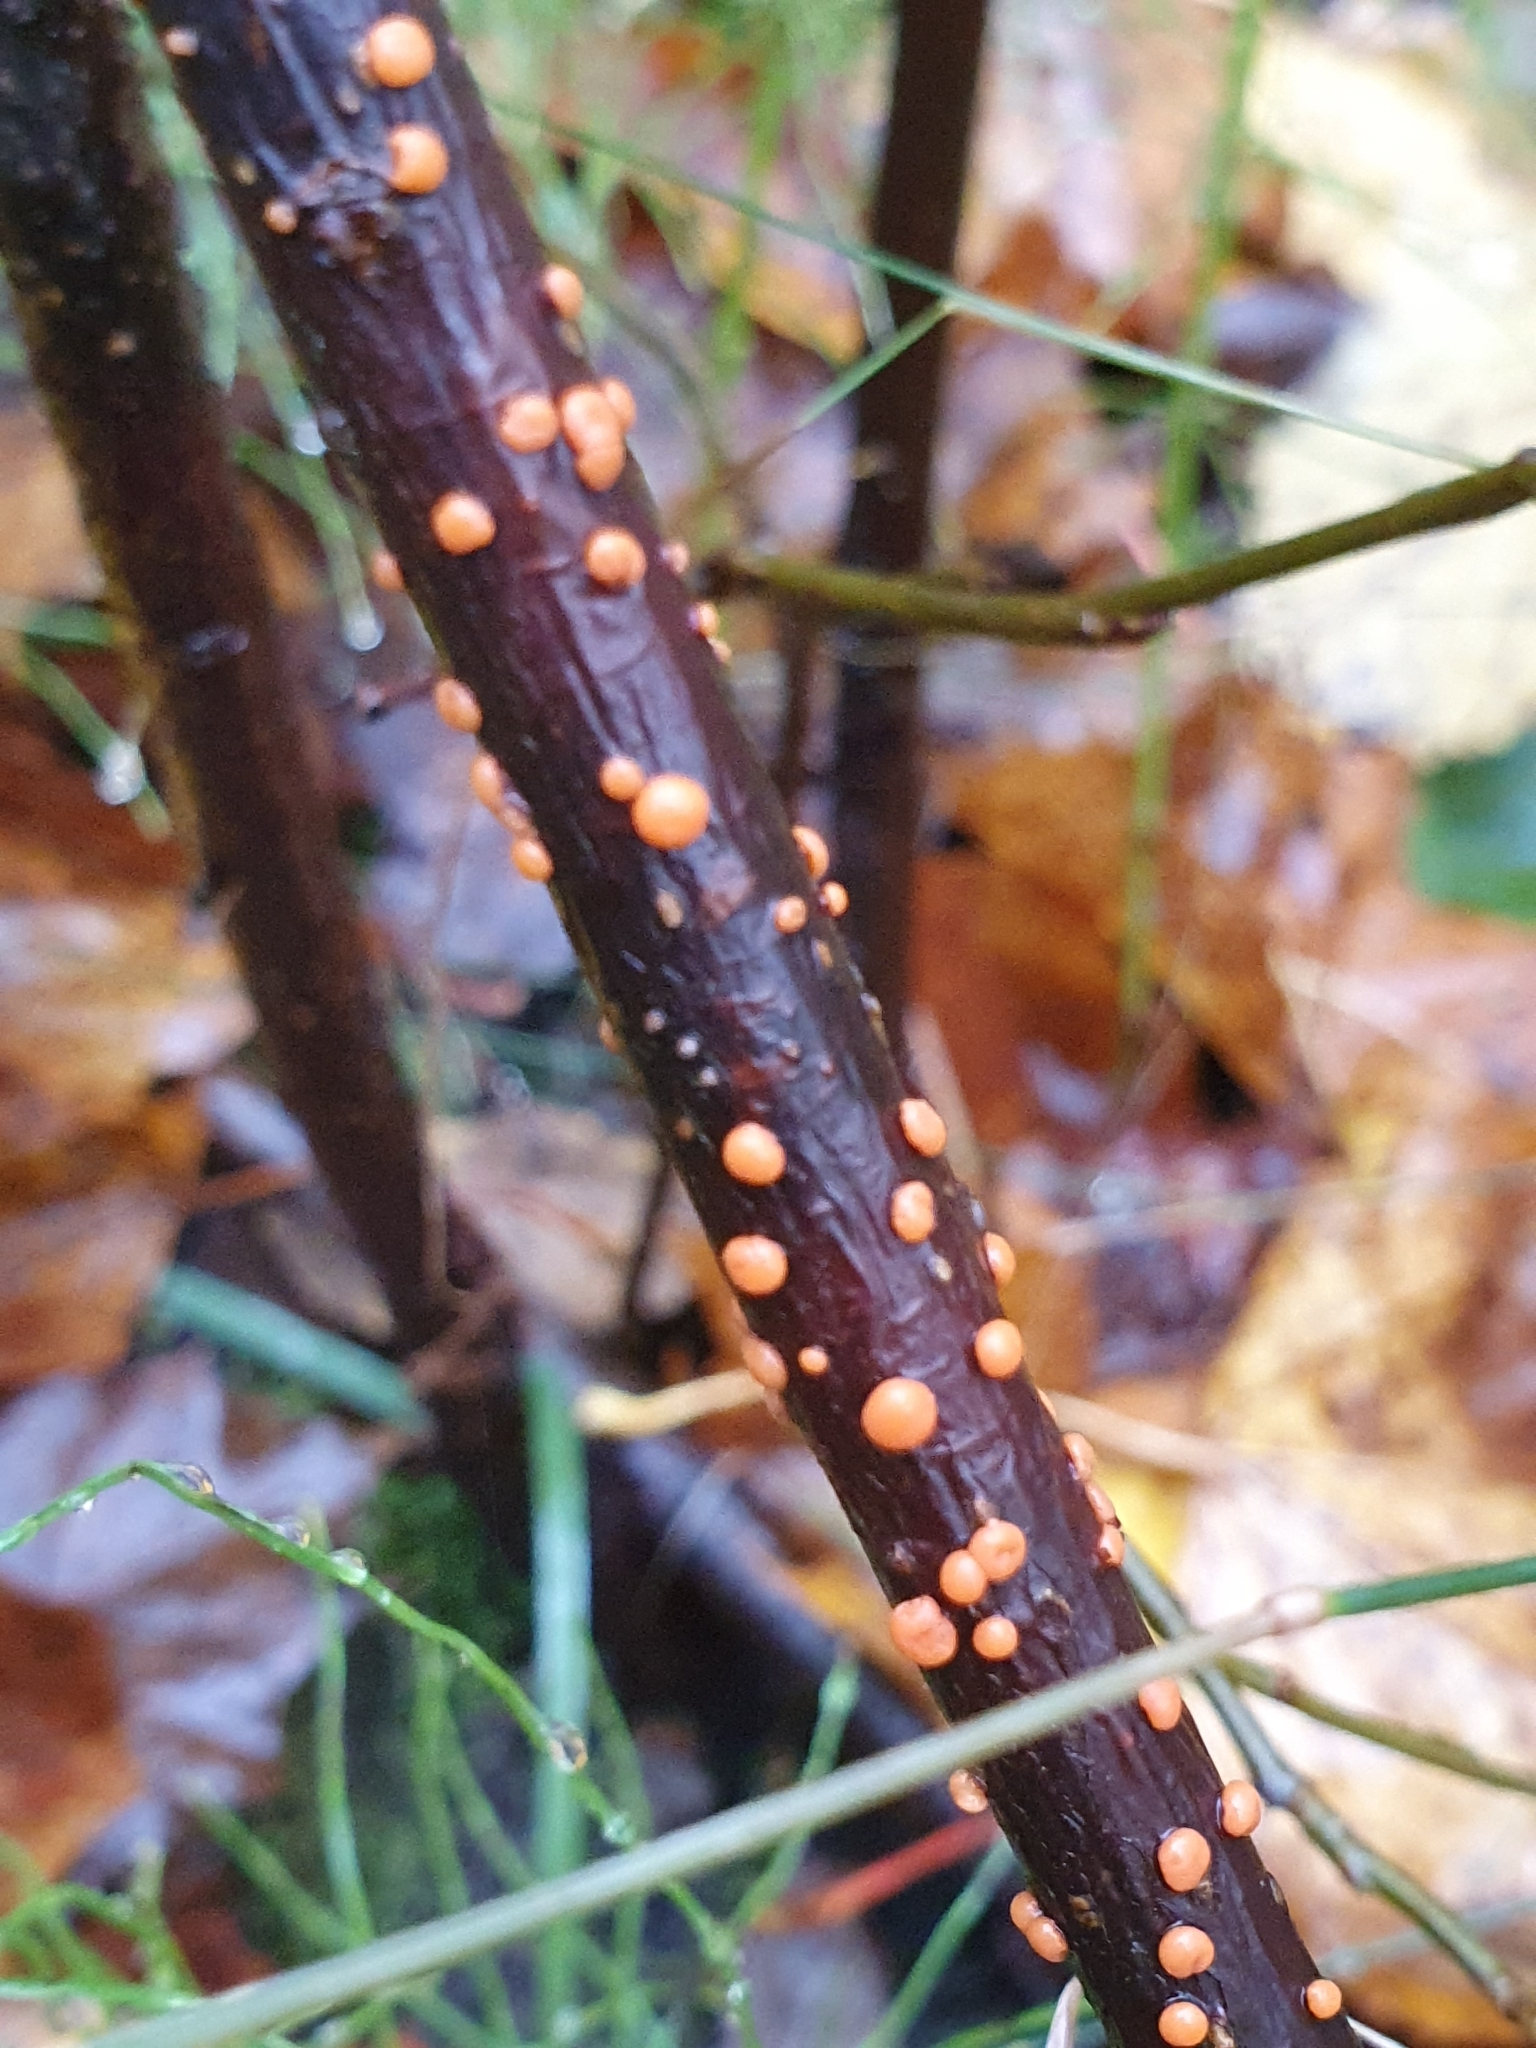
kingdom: Fungi
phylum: Ascomycota
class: Sordariomycetes
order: Hypocreales
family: Nectriaceae
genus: Nectria
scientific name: Nectria cinnabarina
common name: Coral spot
